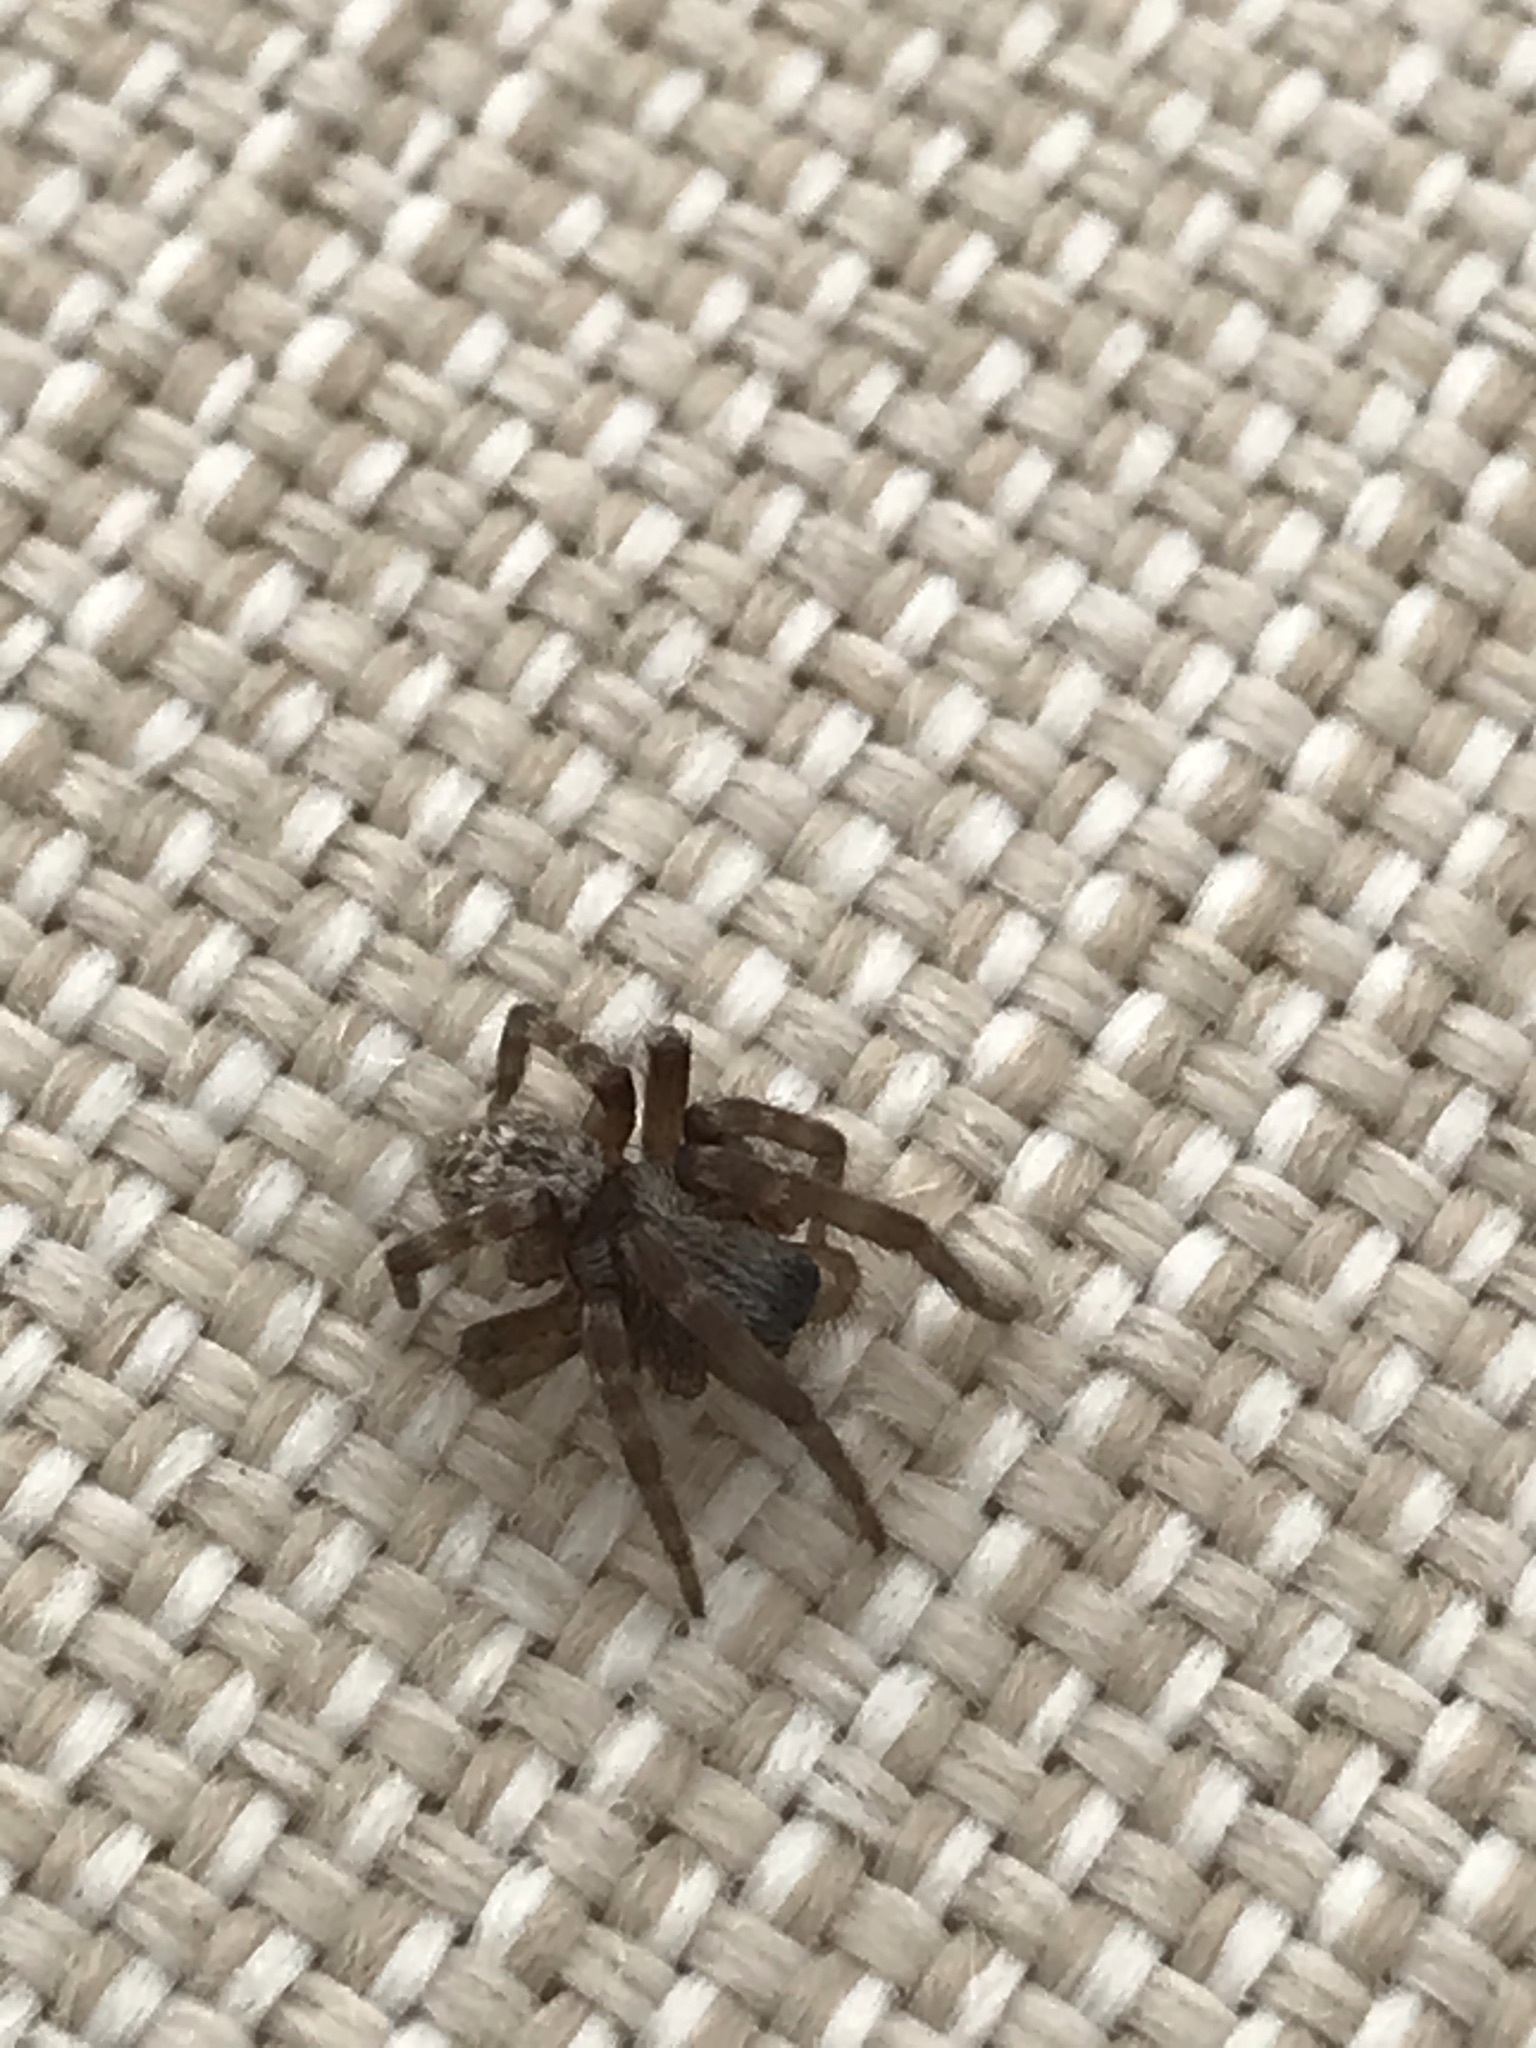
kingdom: Animalia
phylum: Arthropoda
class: Arachnida
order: Araneae
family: Desidae
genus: Badumna
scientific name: Badumna longinqua
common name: Gray house spider
